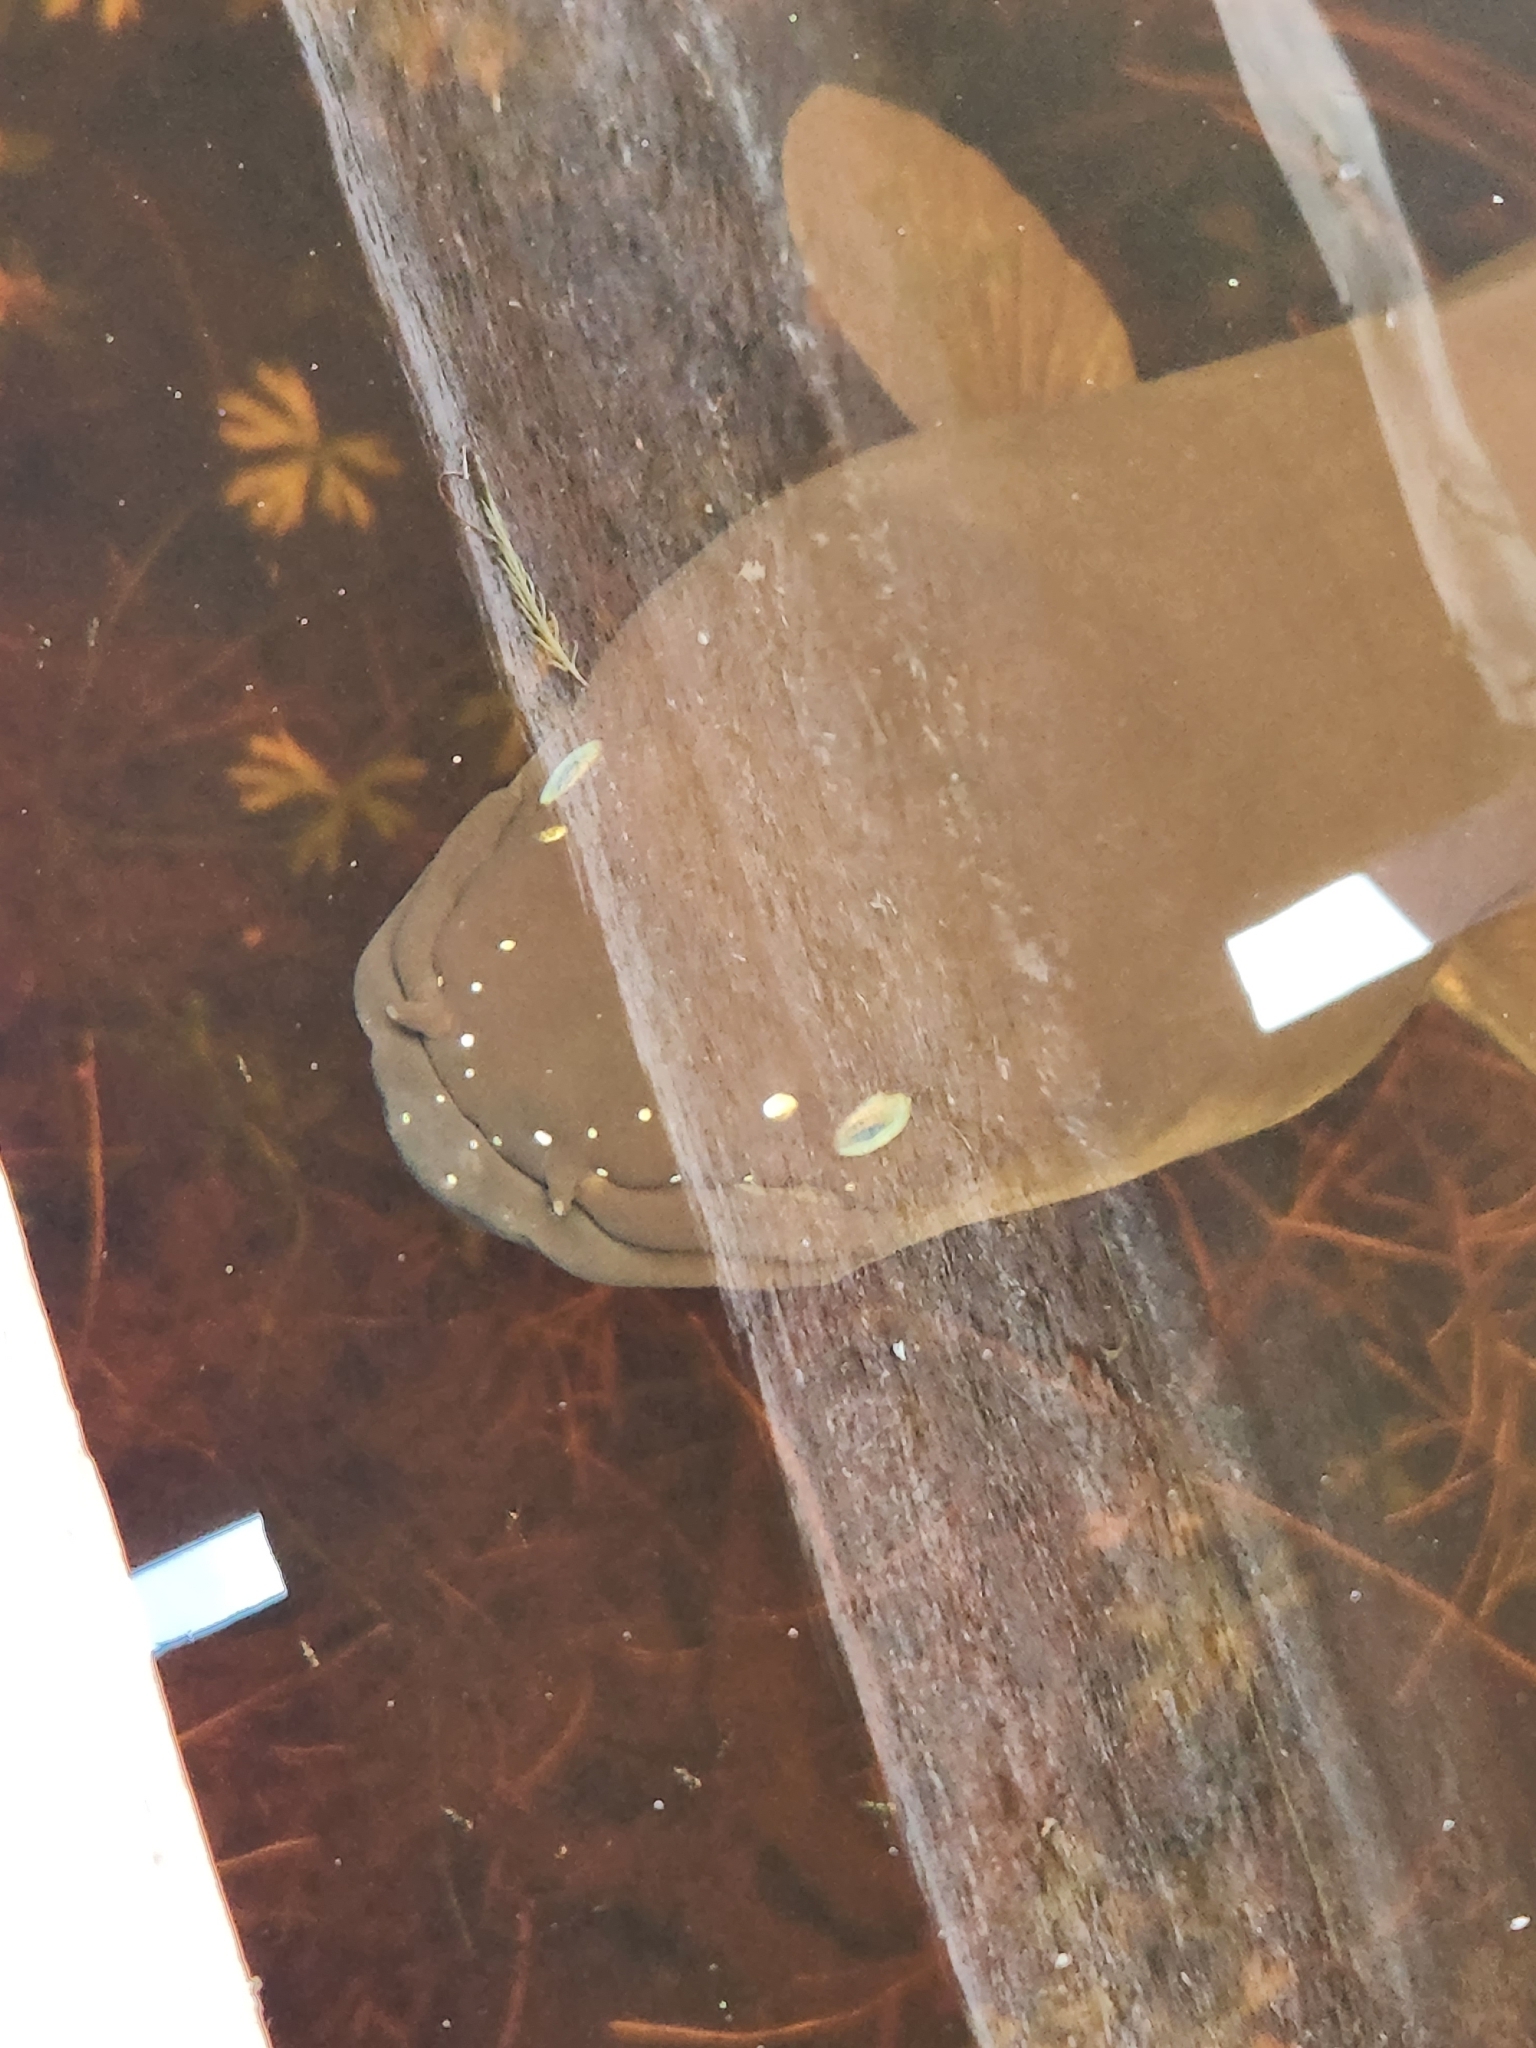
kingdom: Animalia
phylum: Chordata
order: Anguilliformes
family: Anguillidae
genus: Anguilla
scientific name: Anguilla dieffenbachii
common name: New zealand longfin eel
